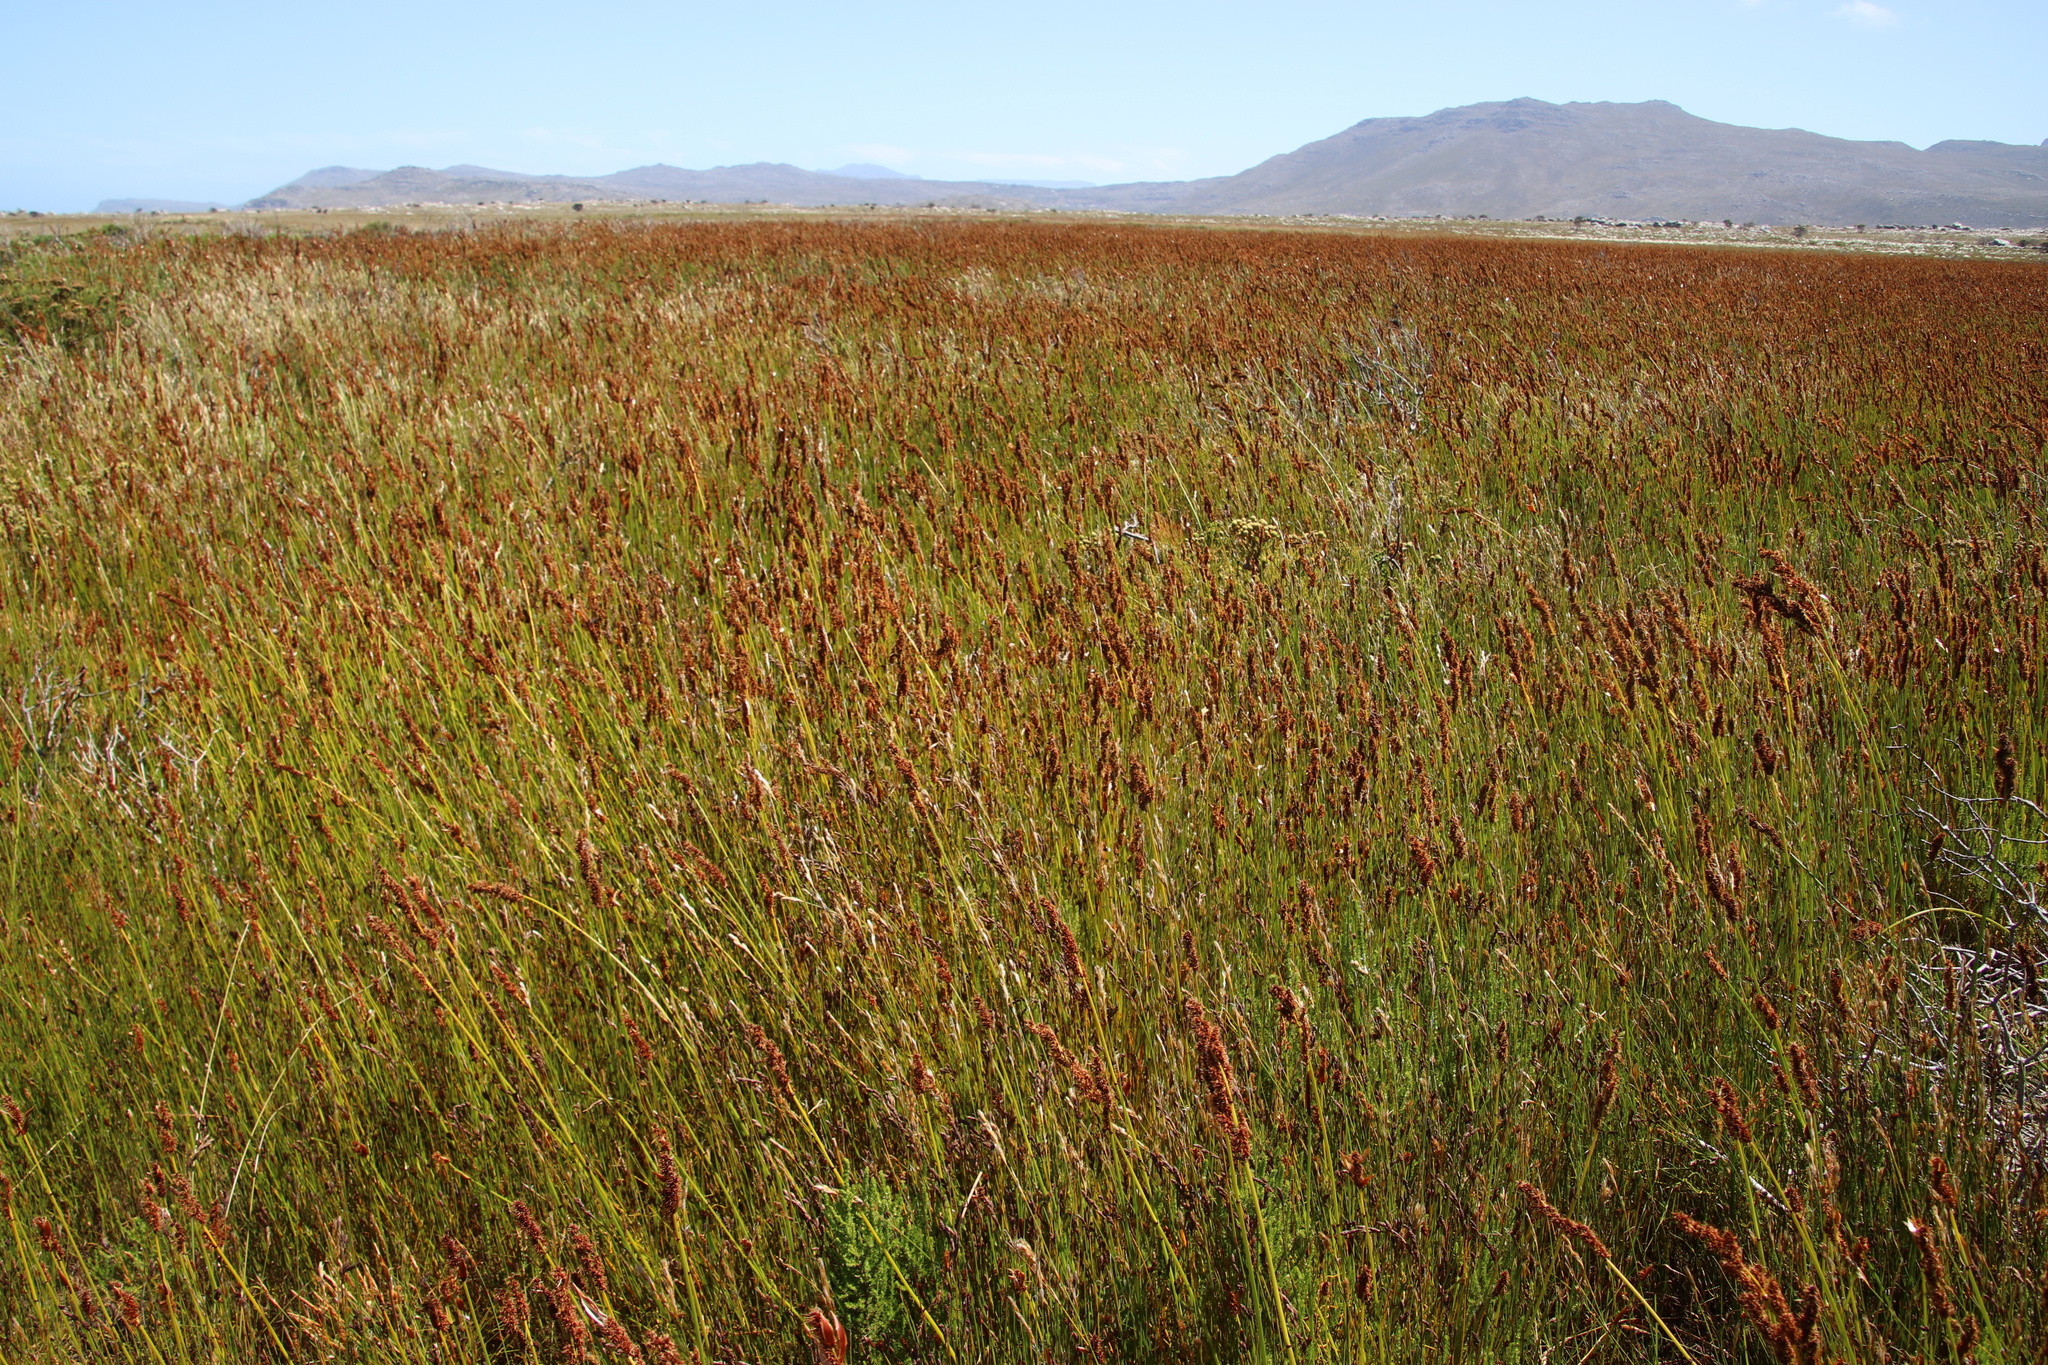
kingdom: Plantae
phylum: Tracheophyta
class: Liliopsida
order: Poales
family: Restionaceae
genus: Elegia
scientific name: Elegia cuspidata
